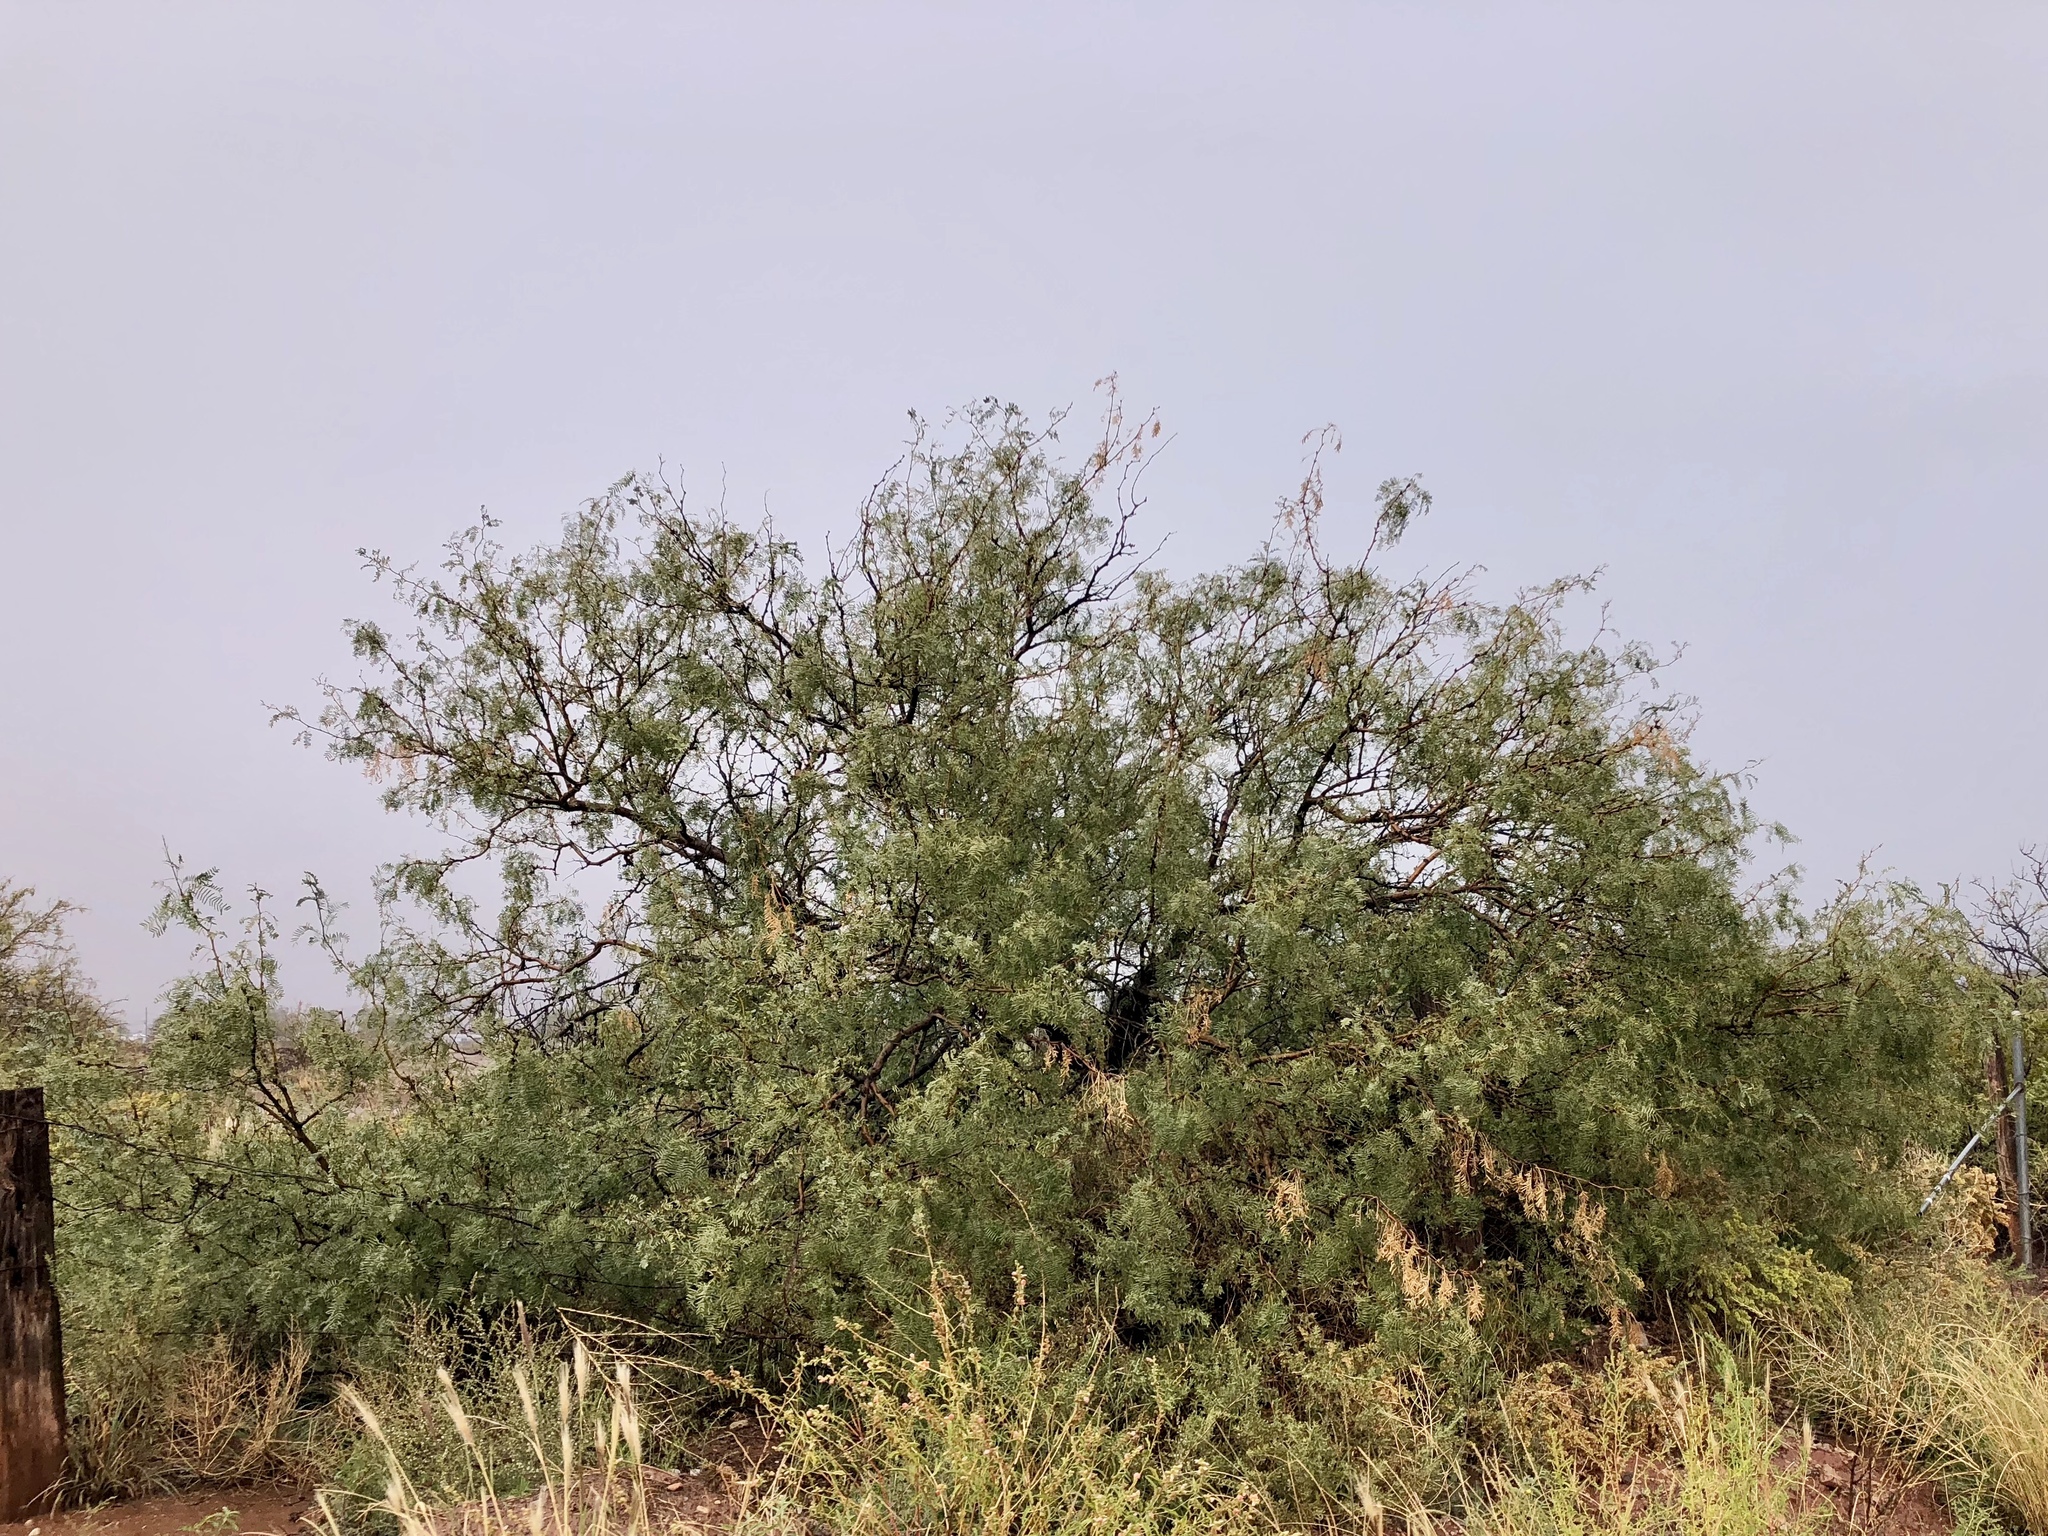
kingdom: Plantae
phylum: Tracheophyta
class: Magnoliopsida
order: Fabales
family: Fabaceae
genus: Prosopis
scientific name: Prosopis glandulosa
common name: Honey mesquite
